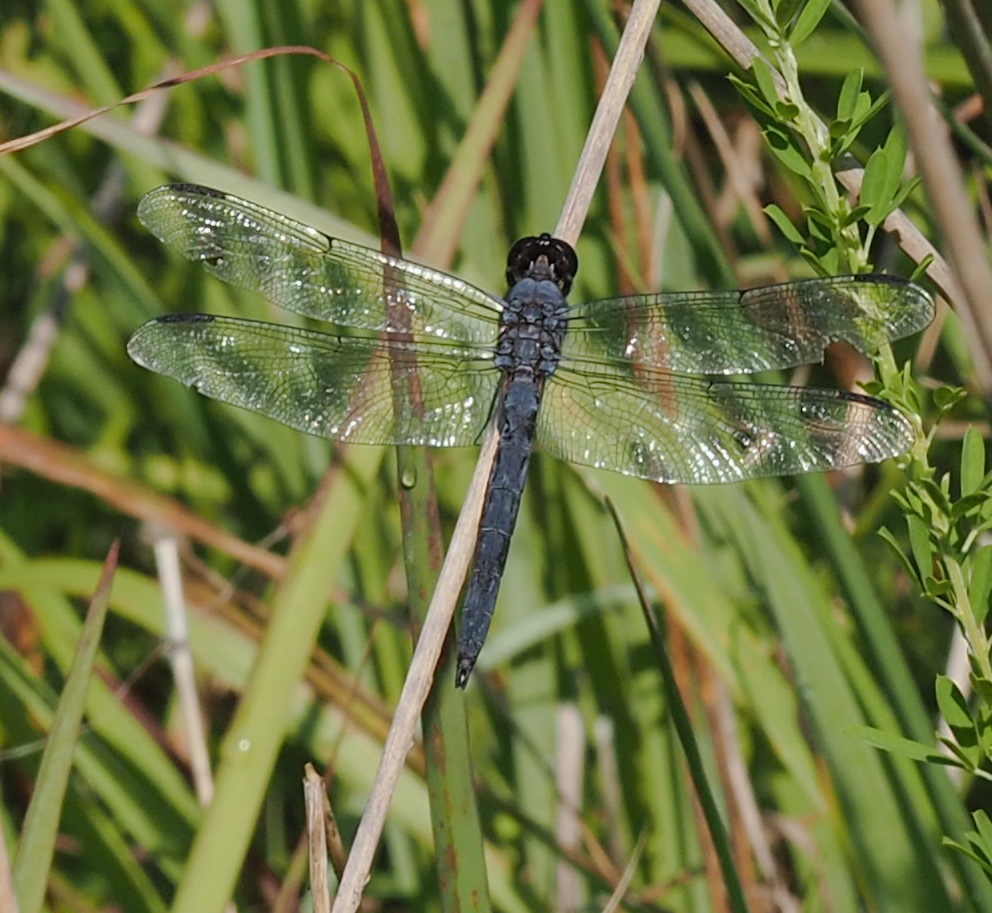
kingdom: Animalia
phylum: Arthropoda
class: Insecta
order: Odonata
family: Libellulidae
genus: Libellula
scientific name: Libellula incesta
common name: Slaty skimmer
